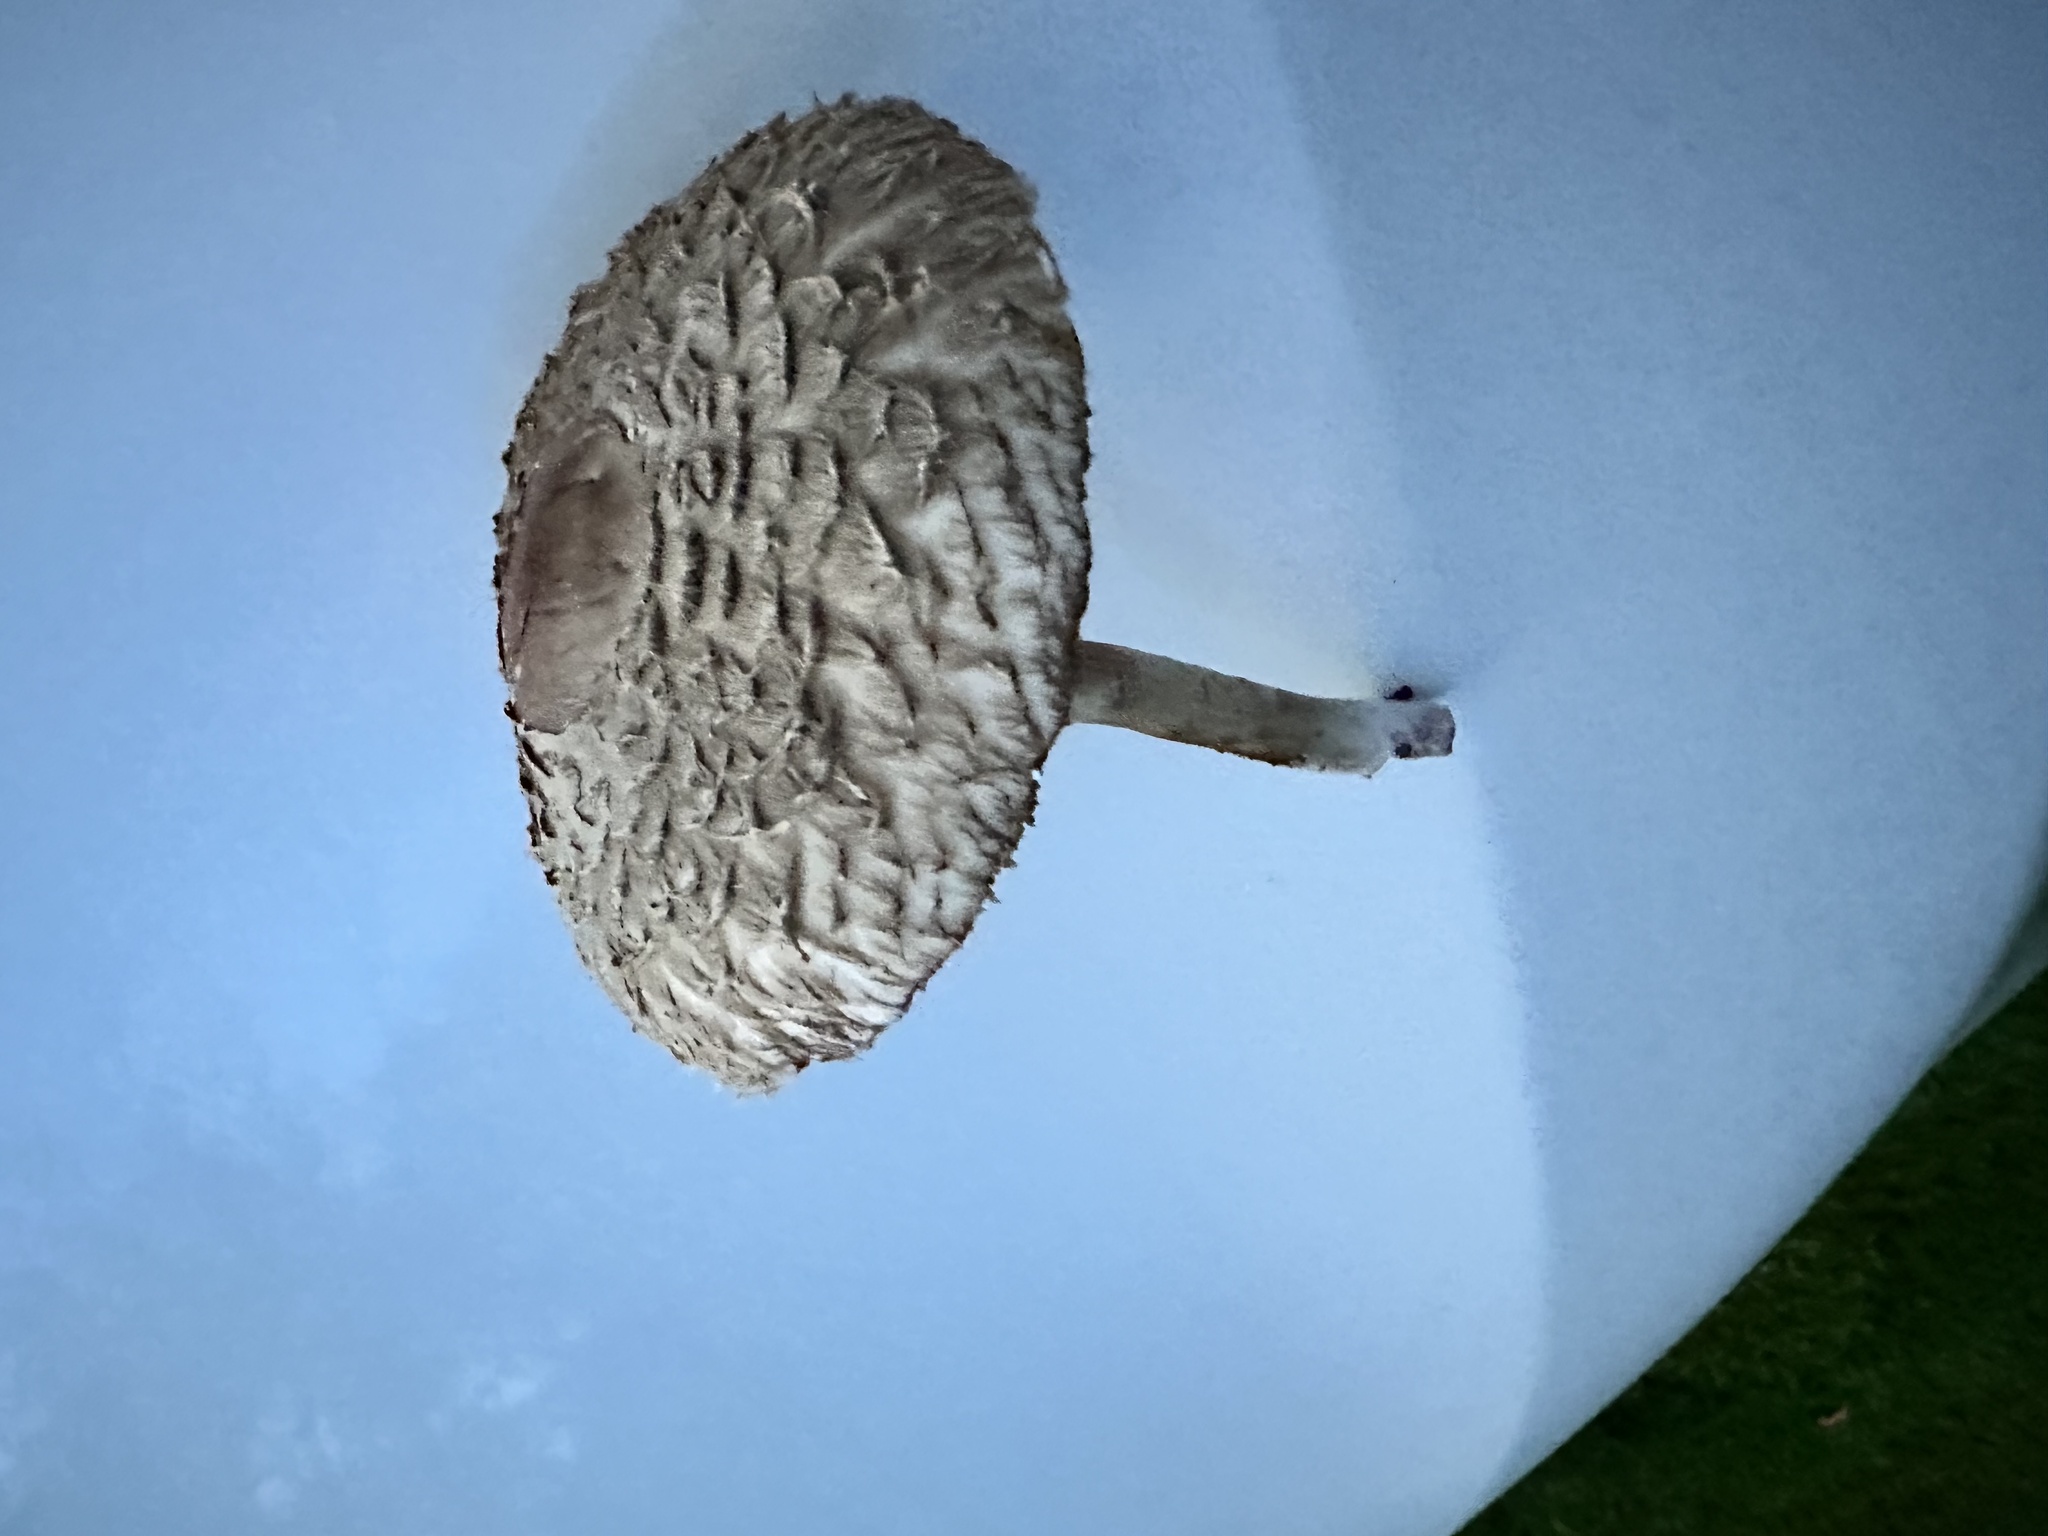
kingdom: Fungi
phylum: Basidiomycota
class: Agaricomycetes
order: Agaricales
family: Agaricaceae
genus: Chlorophyllum
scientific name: Chlorophyllum olivieri
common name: Conifer parasol
